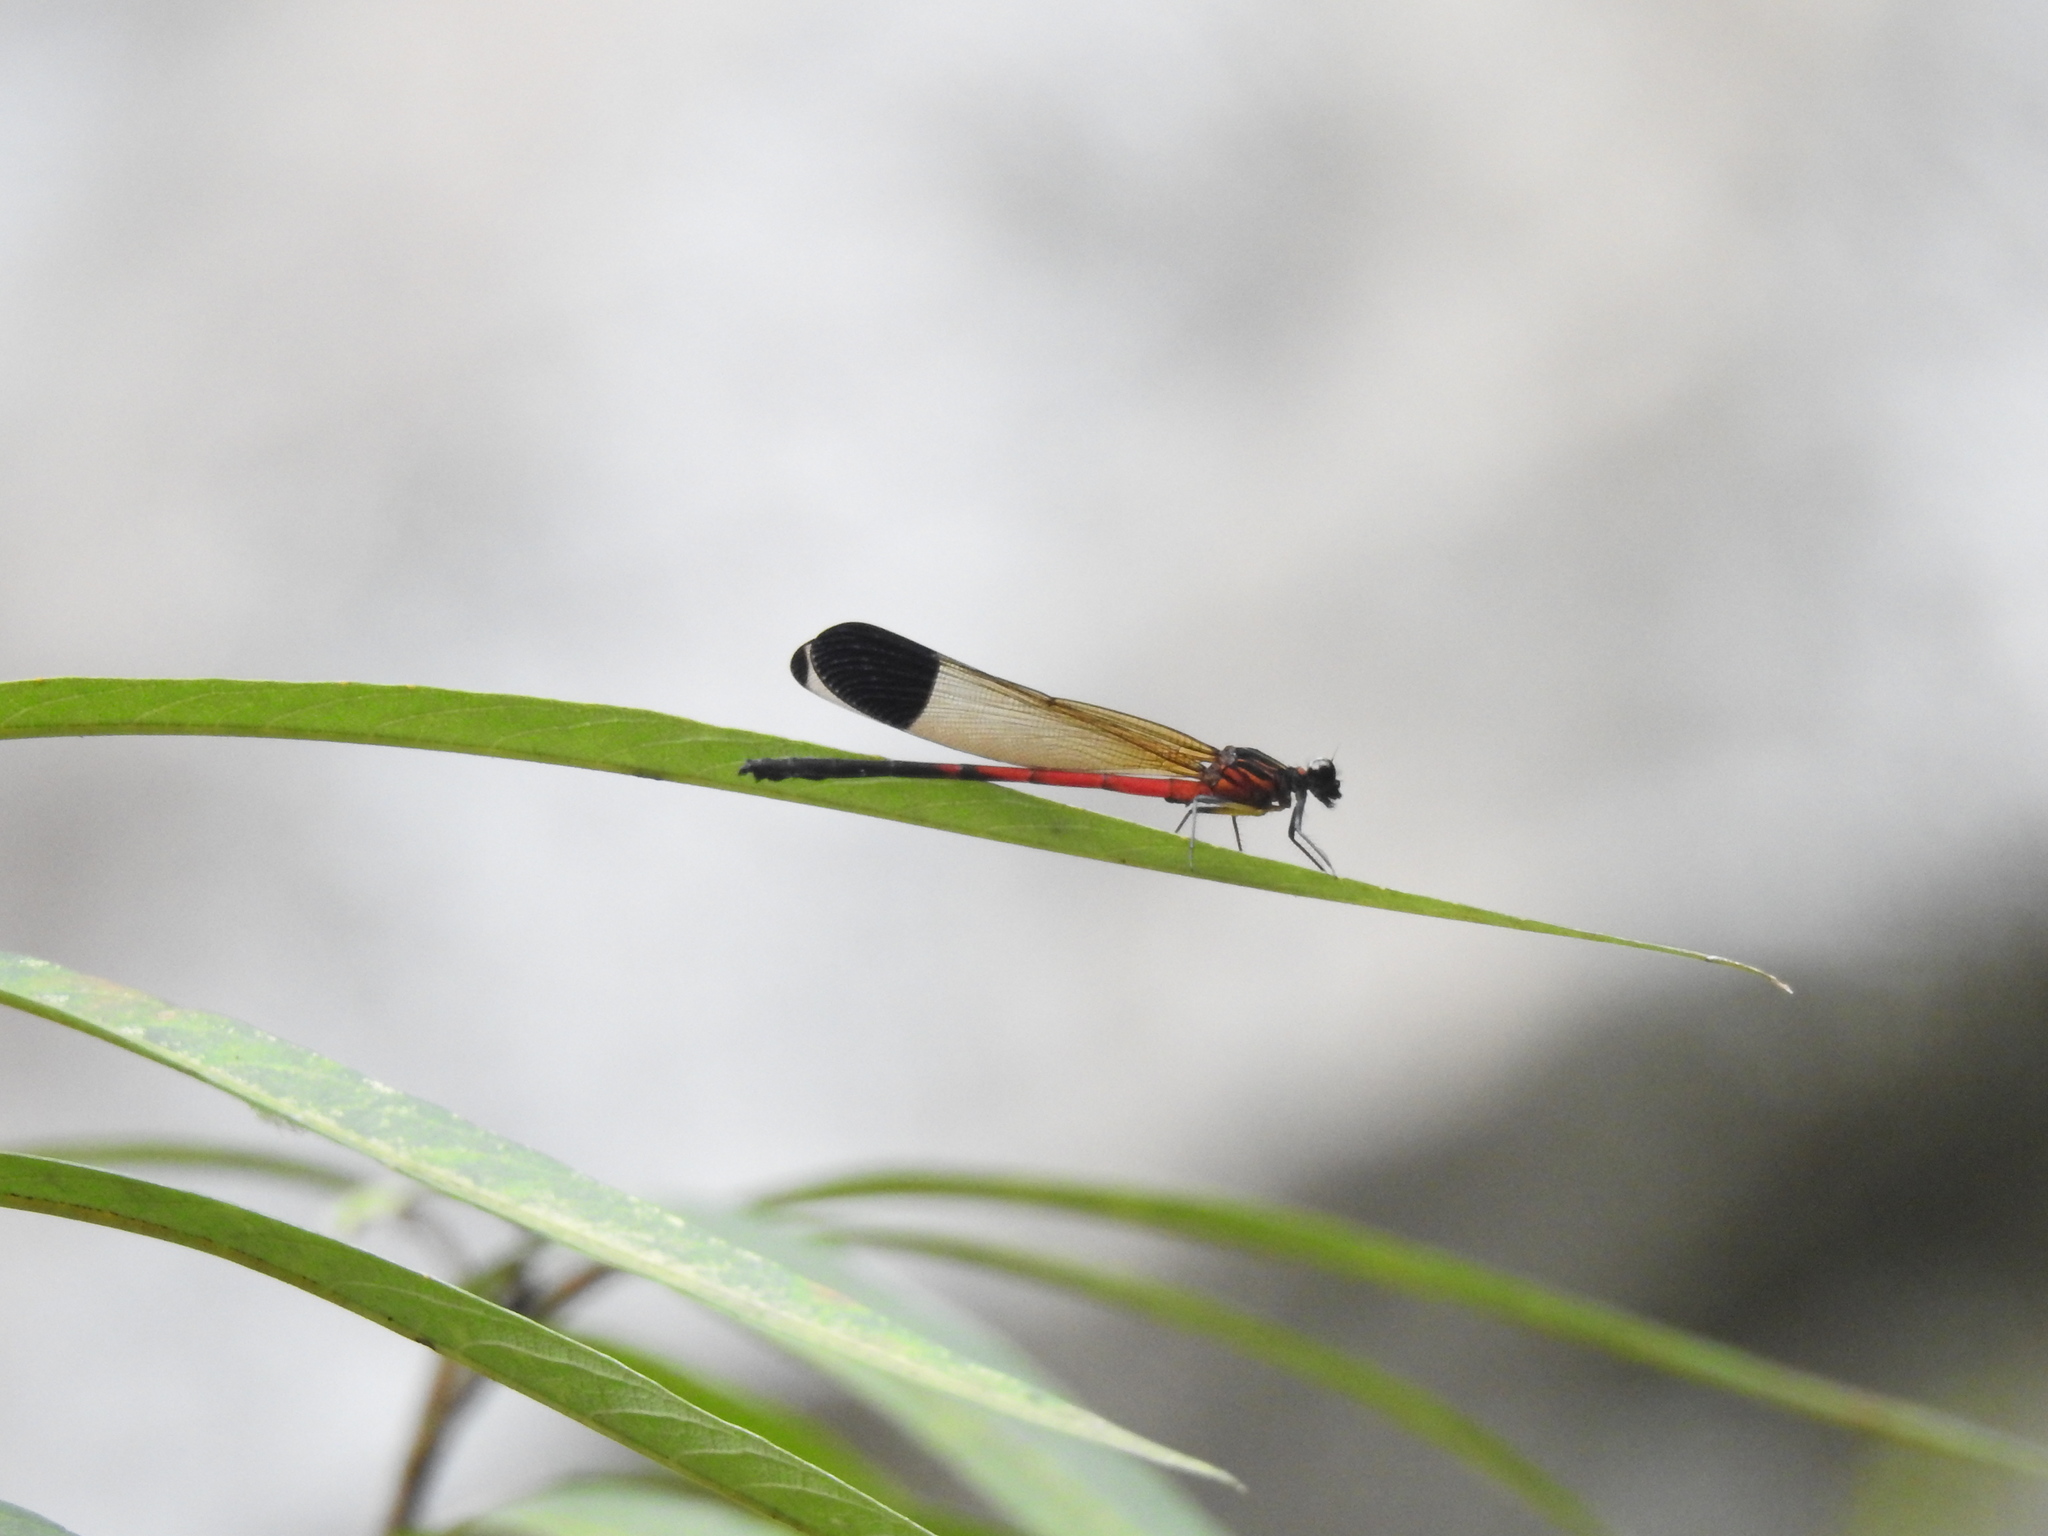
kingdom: Animalia
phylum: Arthropoda
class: Insecta
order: Odonata
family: Euphaeidae
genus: Euphaea
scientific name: Euphaea dispar
